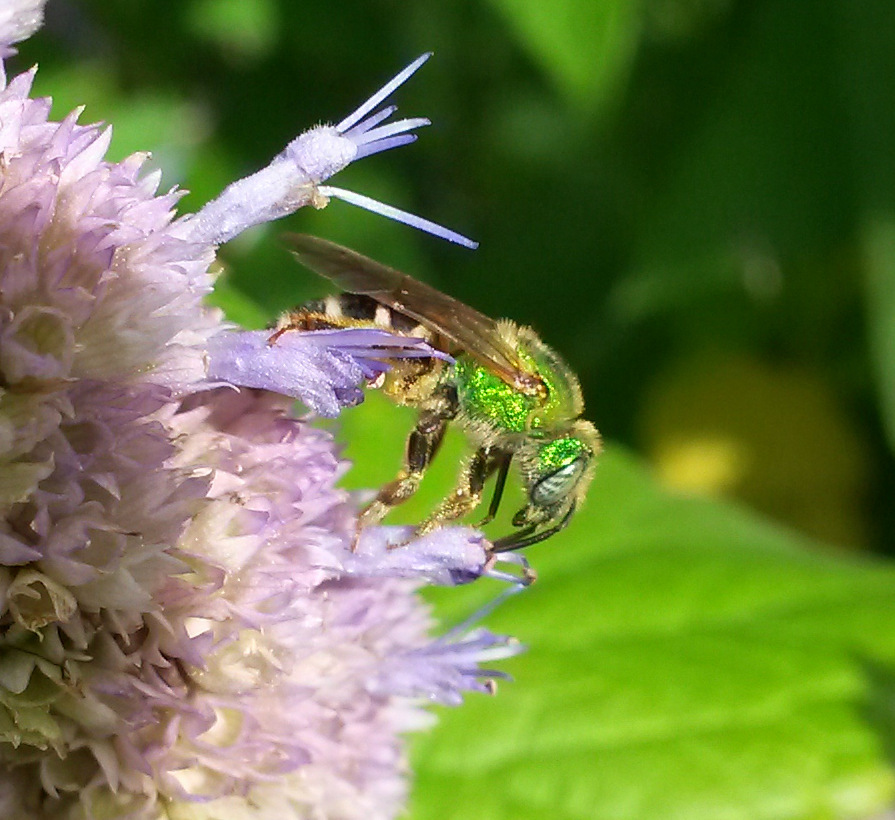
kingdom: Animalia
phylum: Arthropoda
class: Insecta
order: Hymenoptera
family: Halictidae
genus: Agapostemon
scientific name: Agapostemon virescens
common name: Bicolored striped sweat bee
